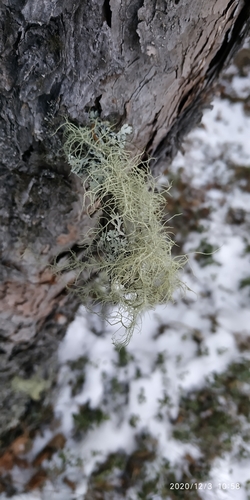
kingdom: Fungi
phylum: Ascomycota
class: Lecanoromycetes
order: Lecanorales
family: Parmeliaceae
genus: Usnea
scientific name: Usnea
